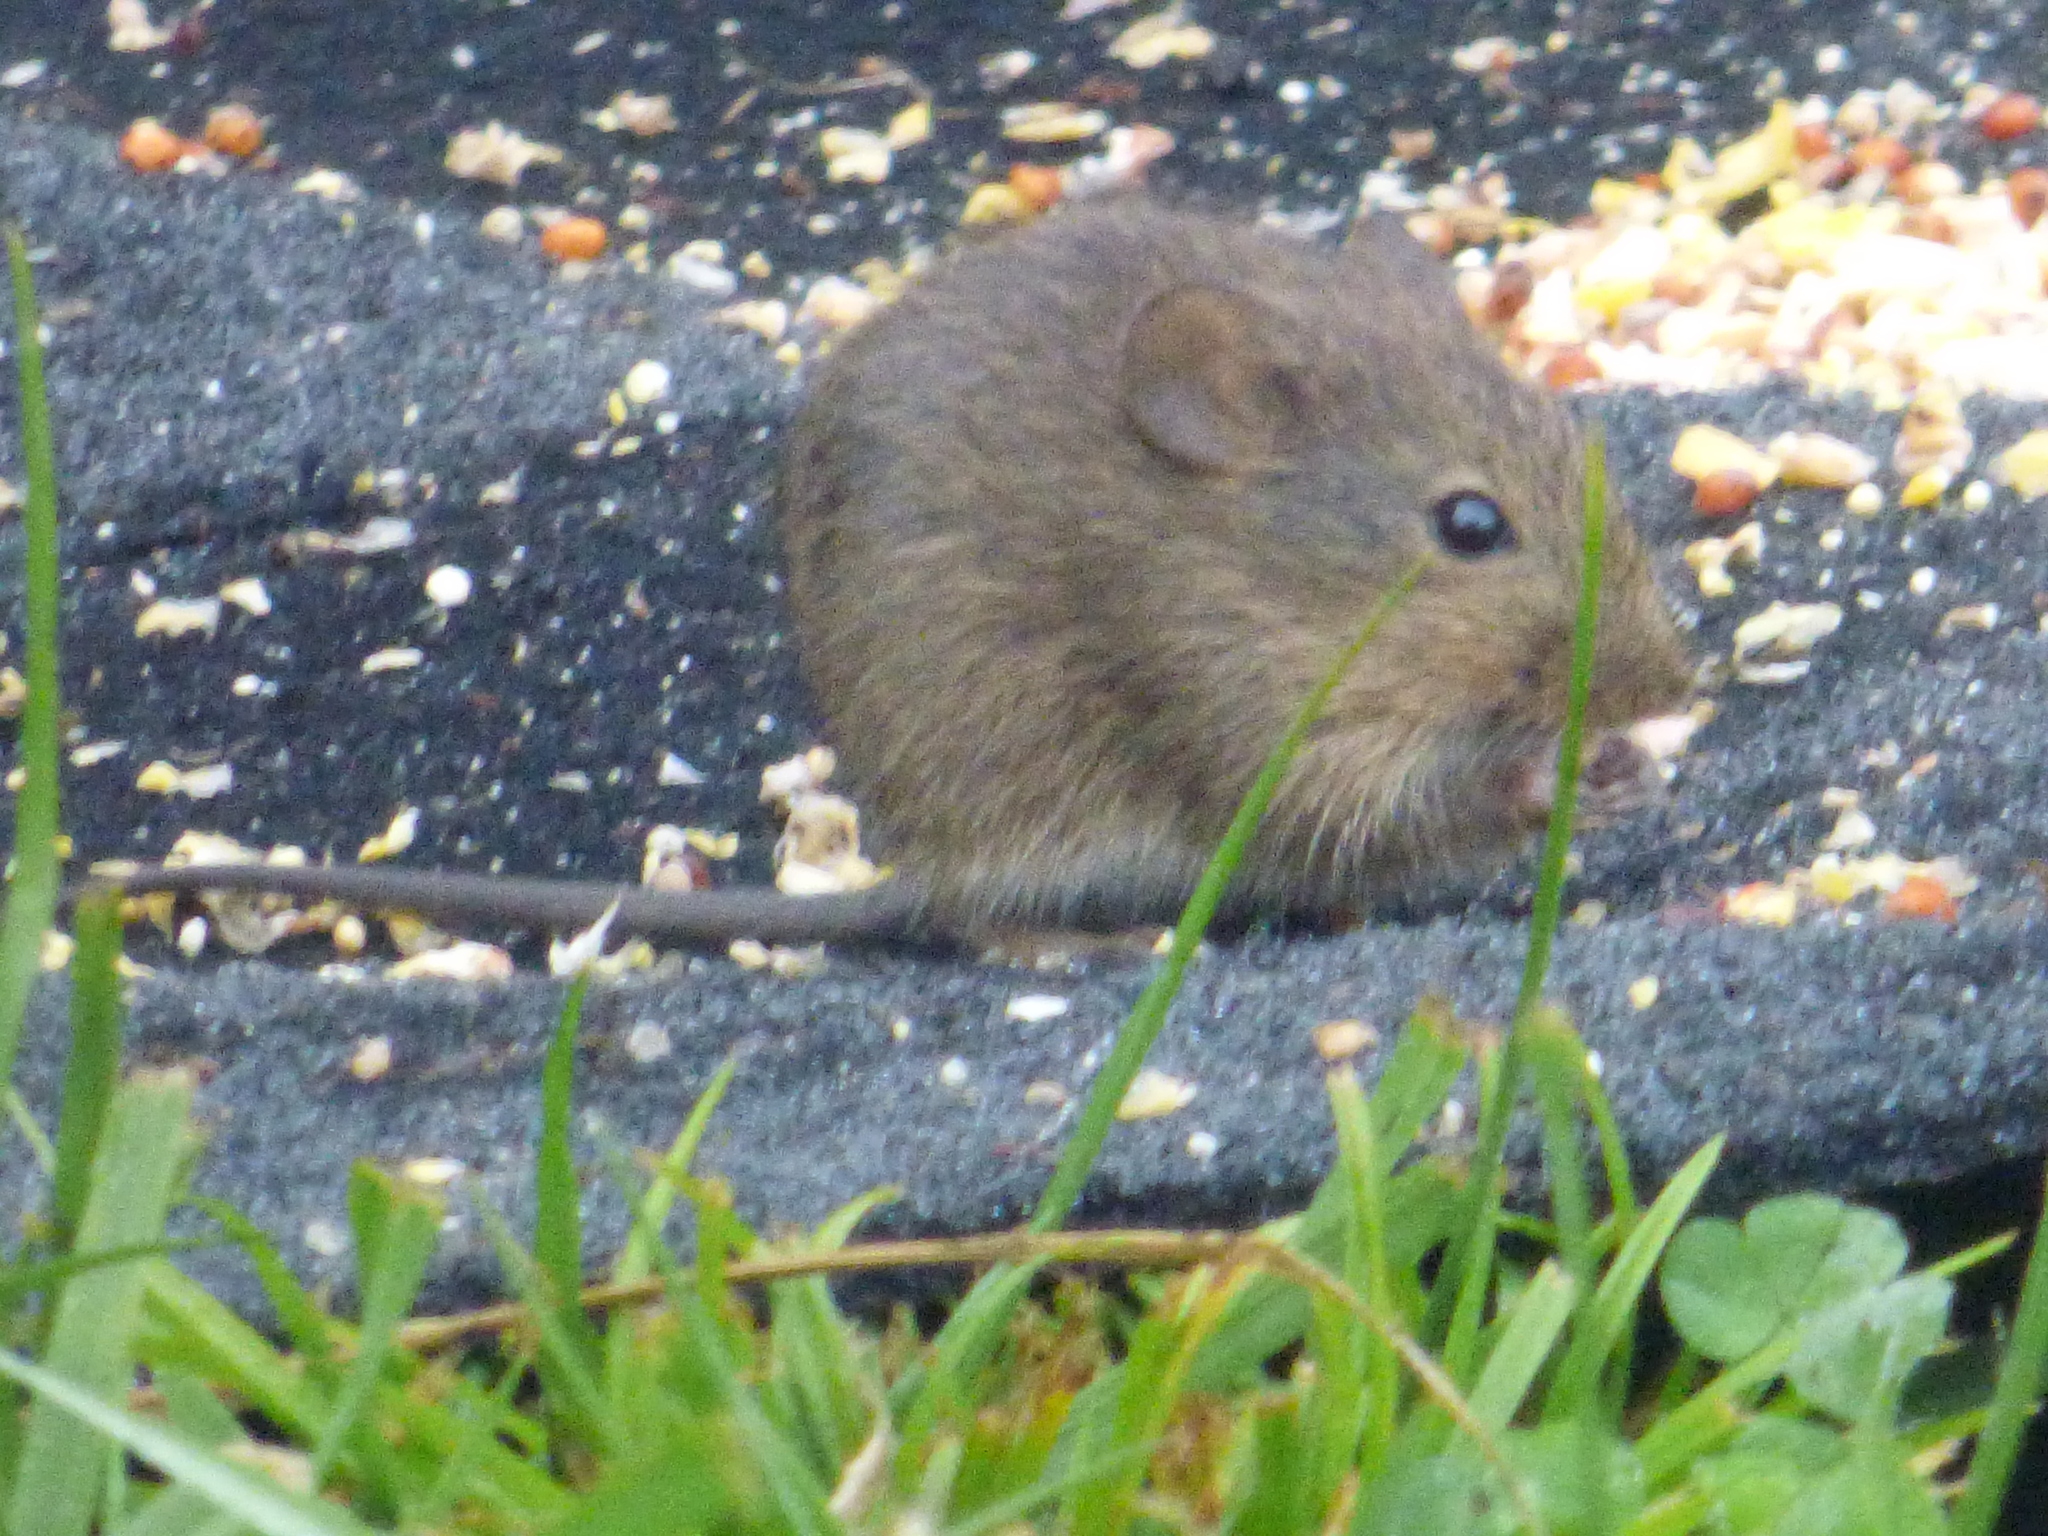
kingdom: Animalia
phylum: Chordata
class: Mammalia
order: Rodentia
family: Cricetidae
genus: Sigmodon
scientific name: Sigmodon hispidus
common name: Hispid cotton rat
